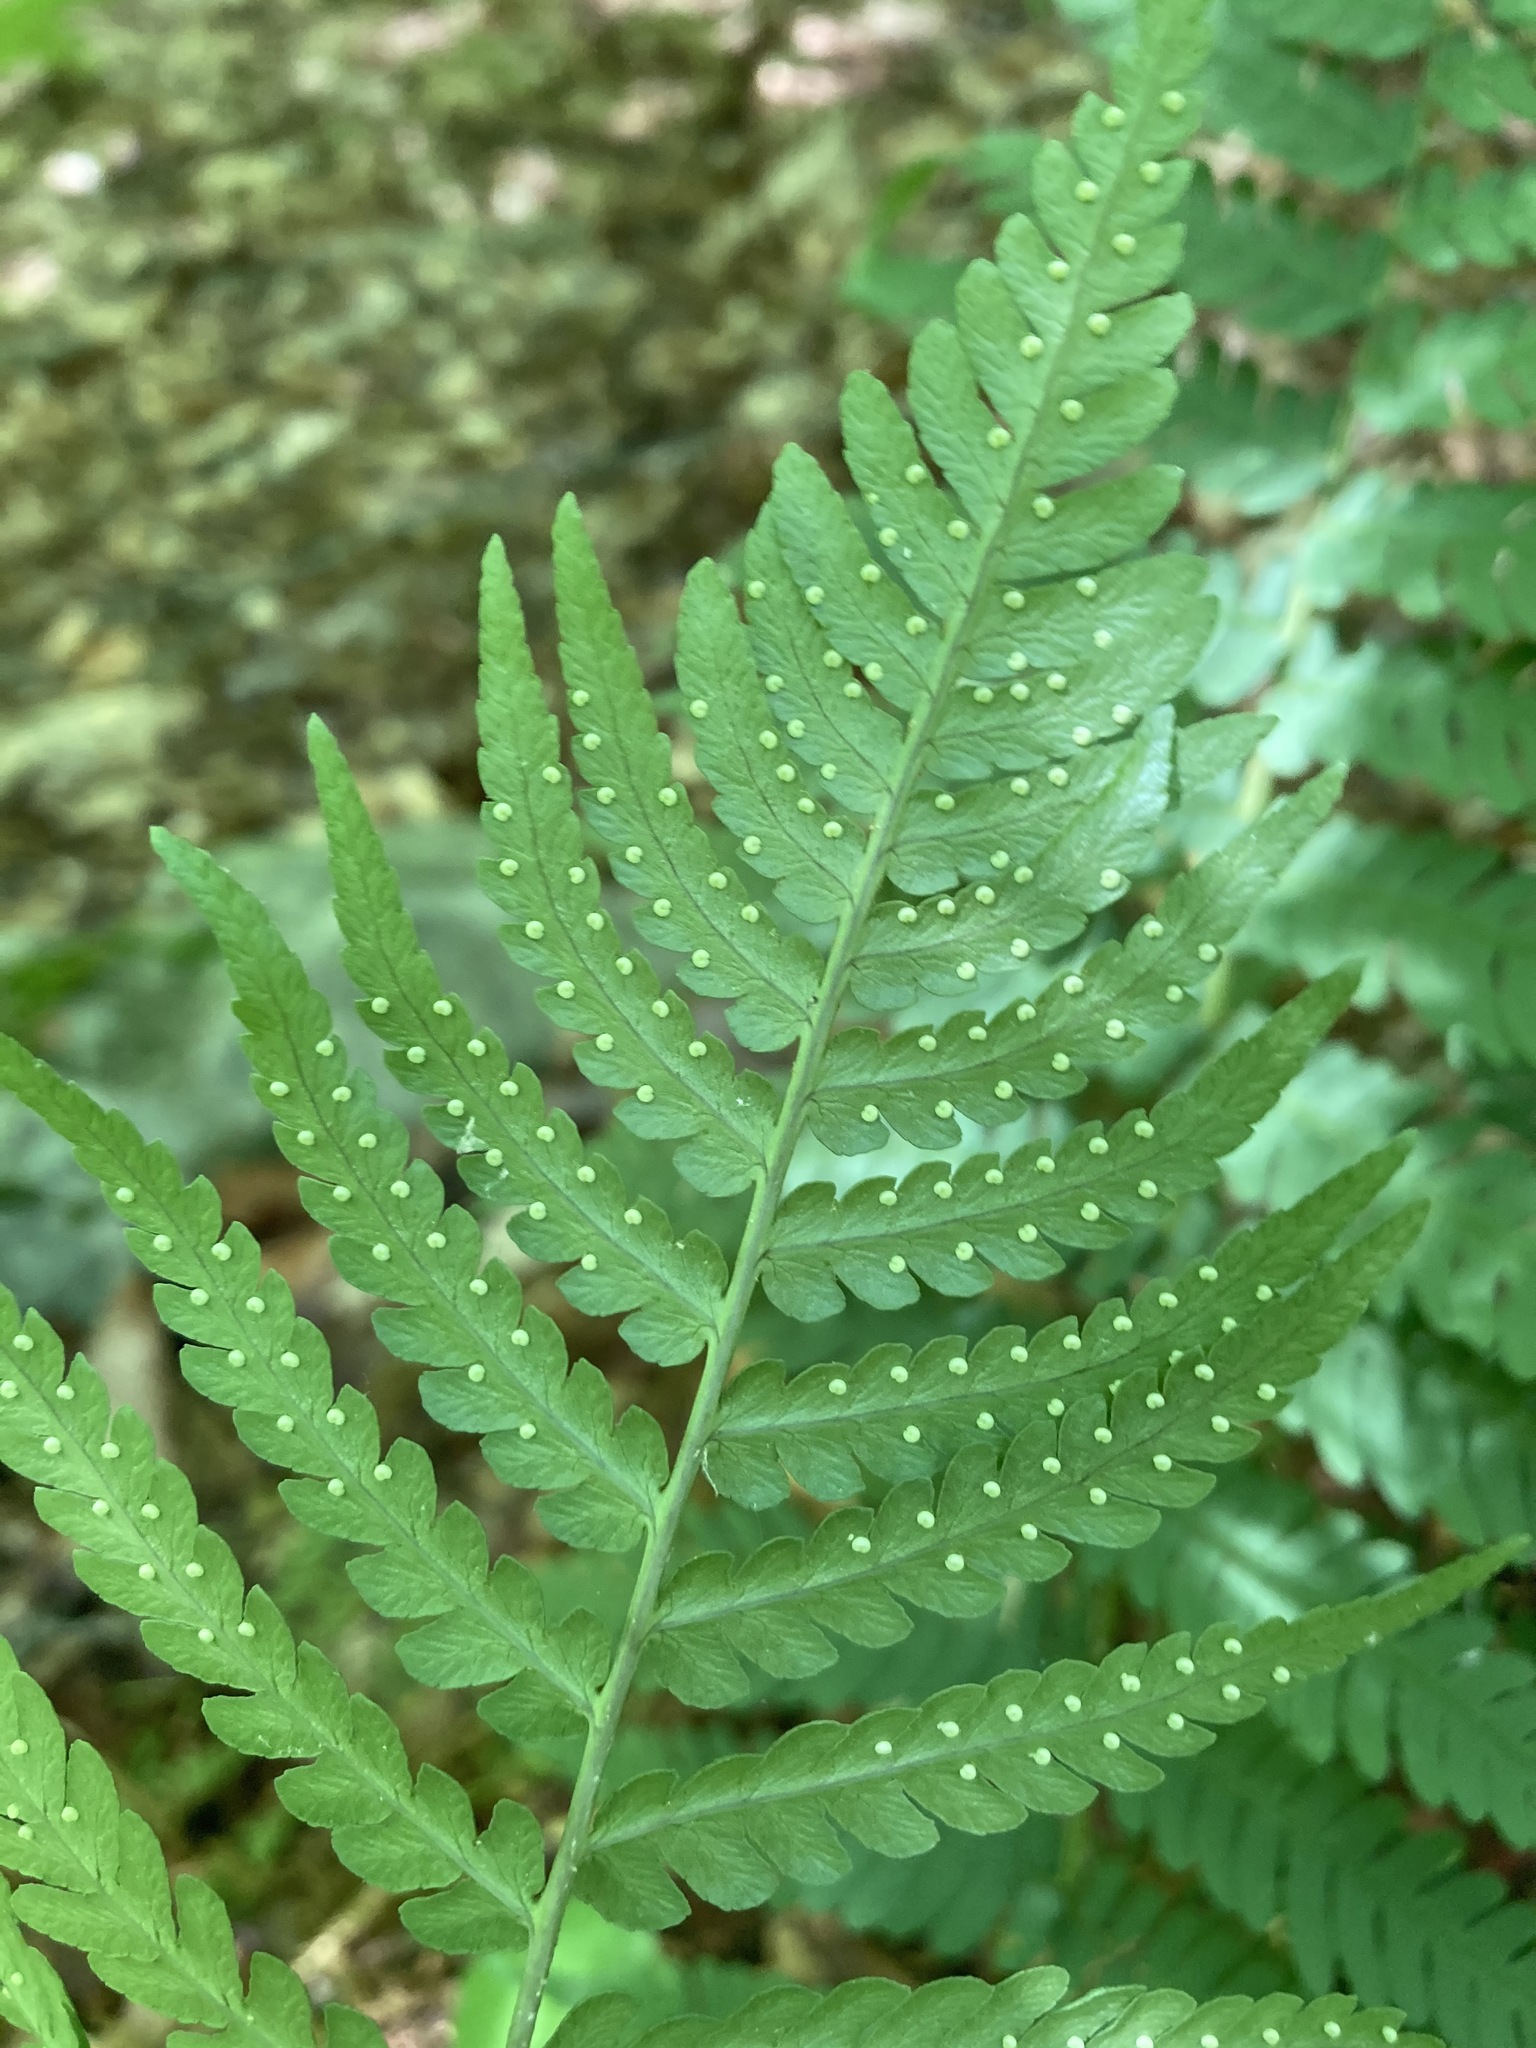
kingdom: Plantae
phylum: Tracheophyta
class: Polypodiopsida
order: Polypodiales
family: Dryopteridaceae
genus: Dryopteris
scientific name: Dryopteris marginalis
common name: Marginal wood fern
